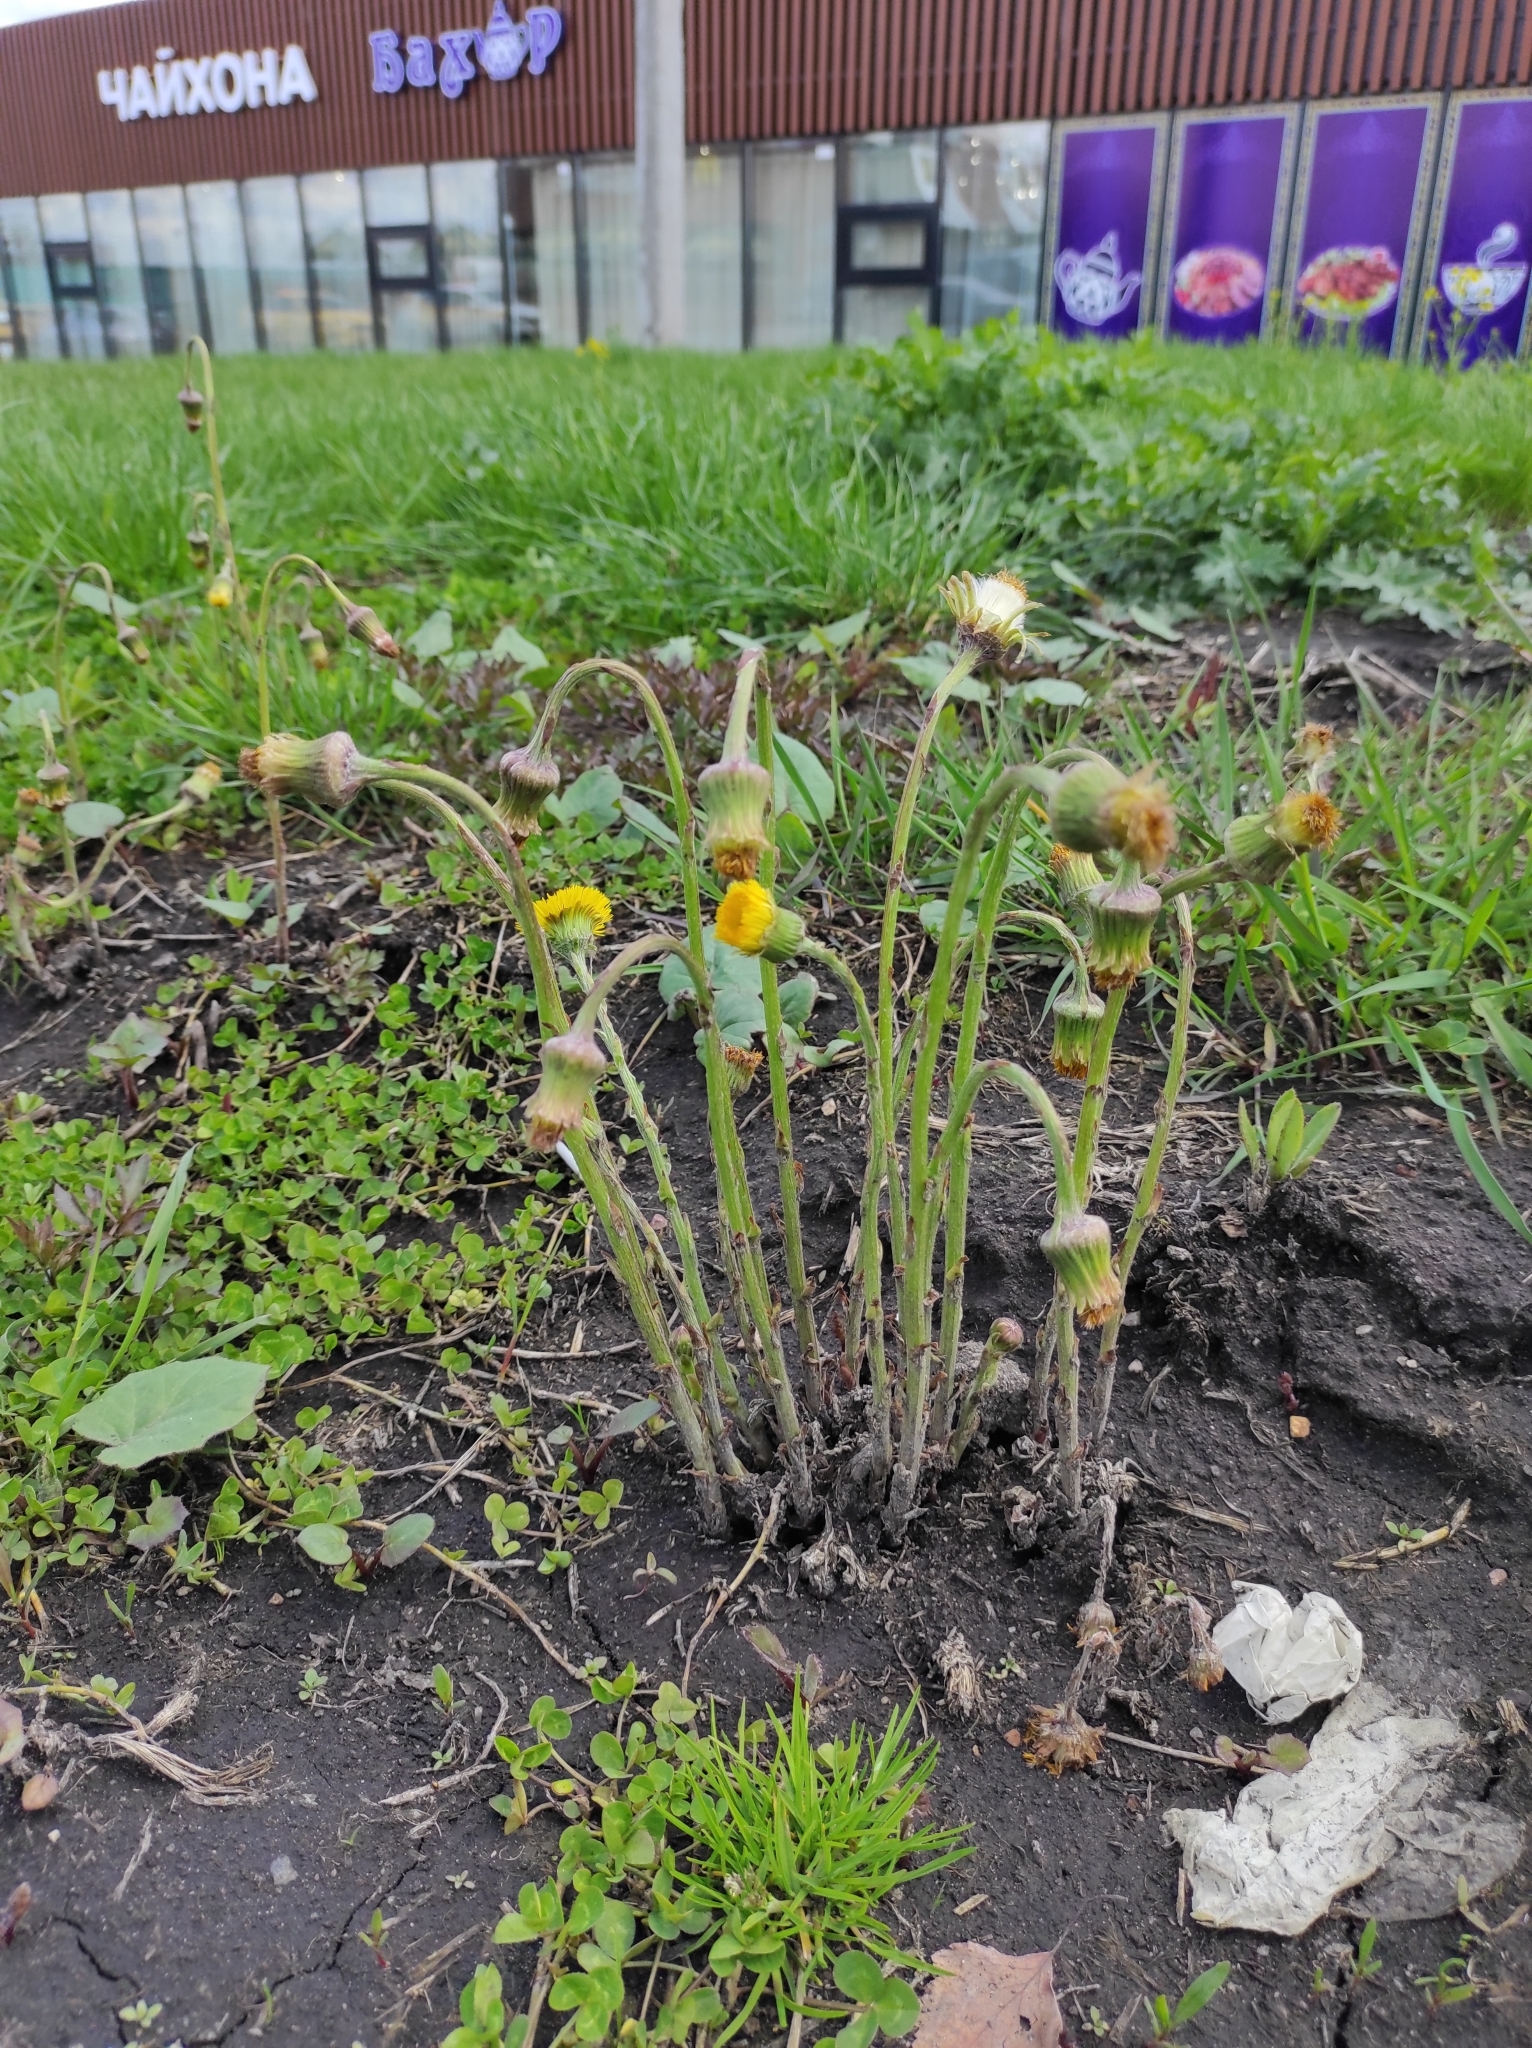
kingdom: Plantae
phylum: Tracheophyta
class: Magnoliopsida
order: Asterales
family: Asteraceae
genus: Tussilago
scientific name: Tussilago farfara
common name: Coltsfoot
